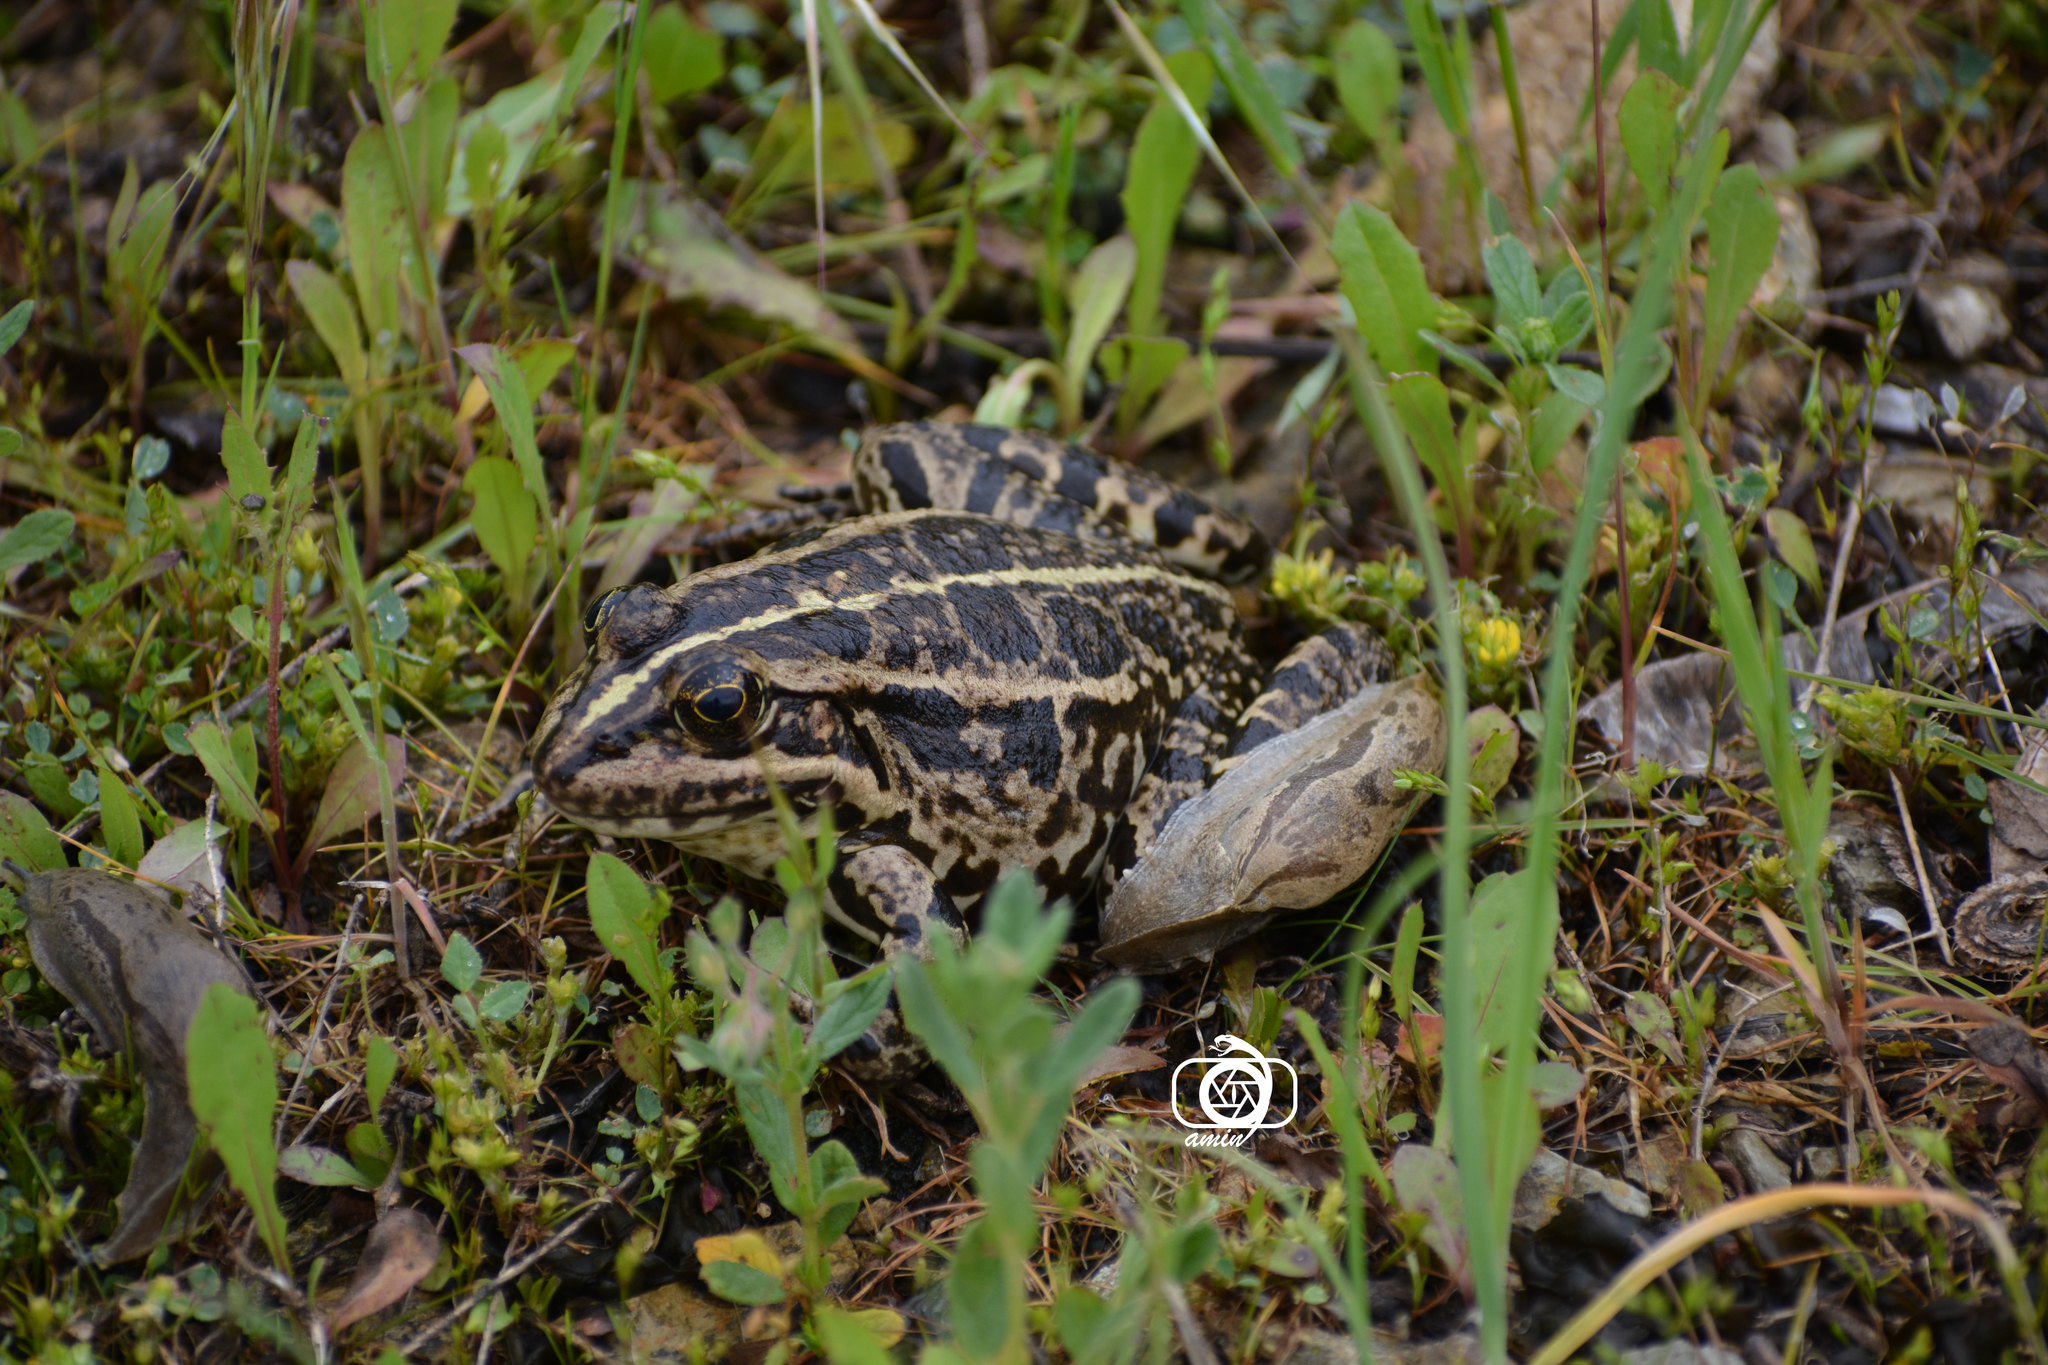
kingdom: Animalia
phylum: Chordata
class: Amphibia
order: Anura
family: Ranidae
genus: Pelophylax
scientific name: Pelophylax ridibundus
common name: Marsh frog
